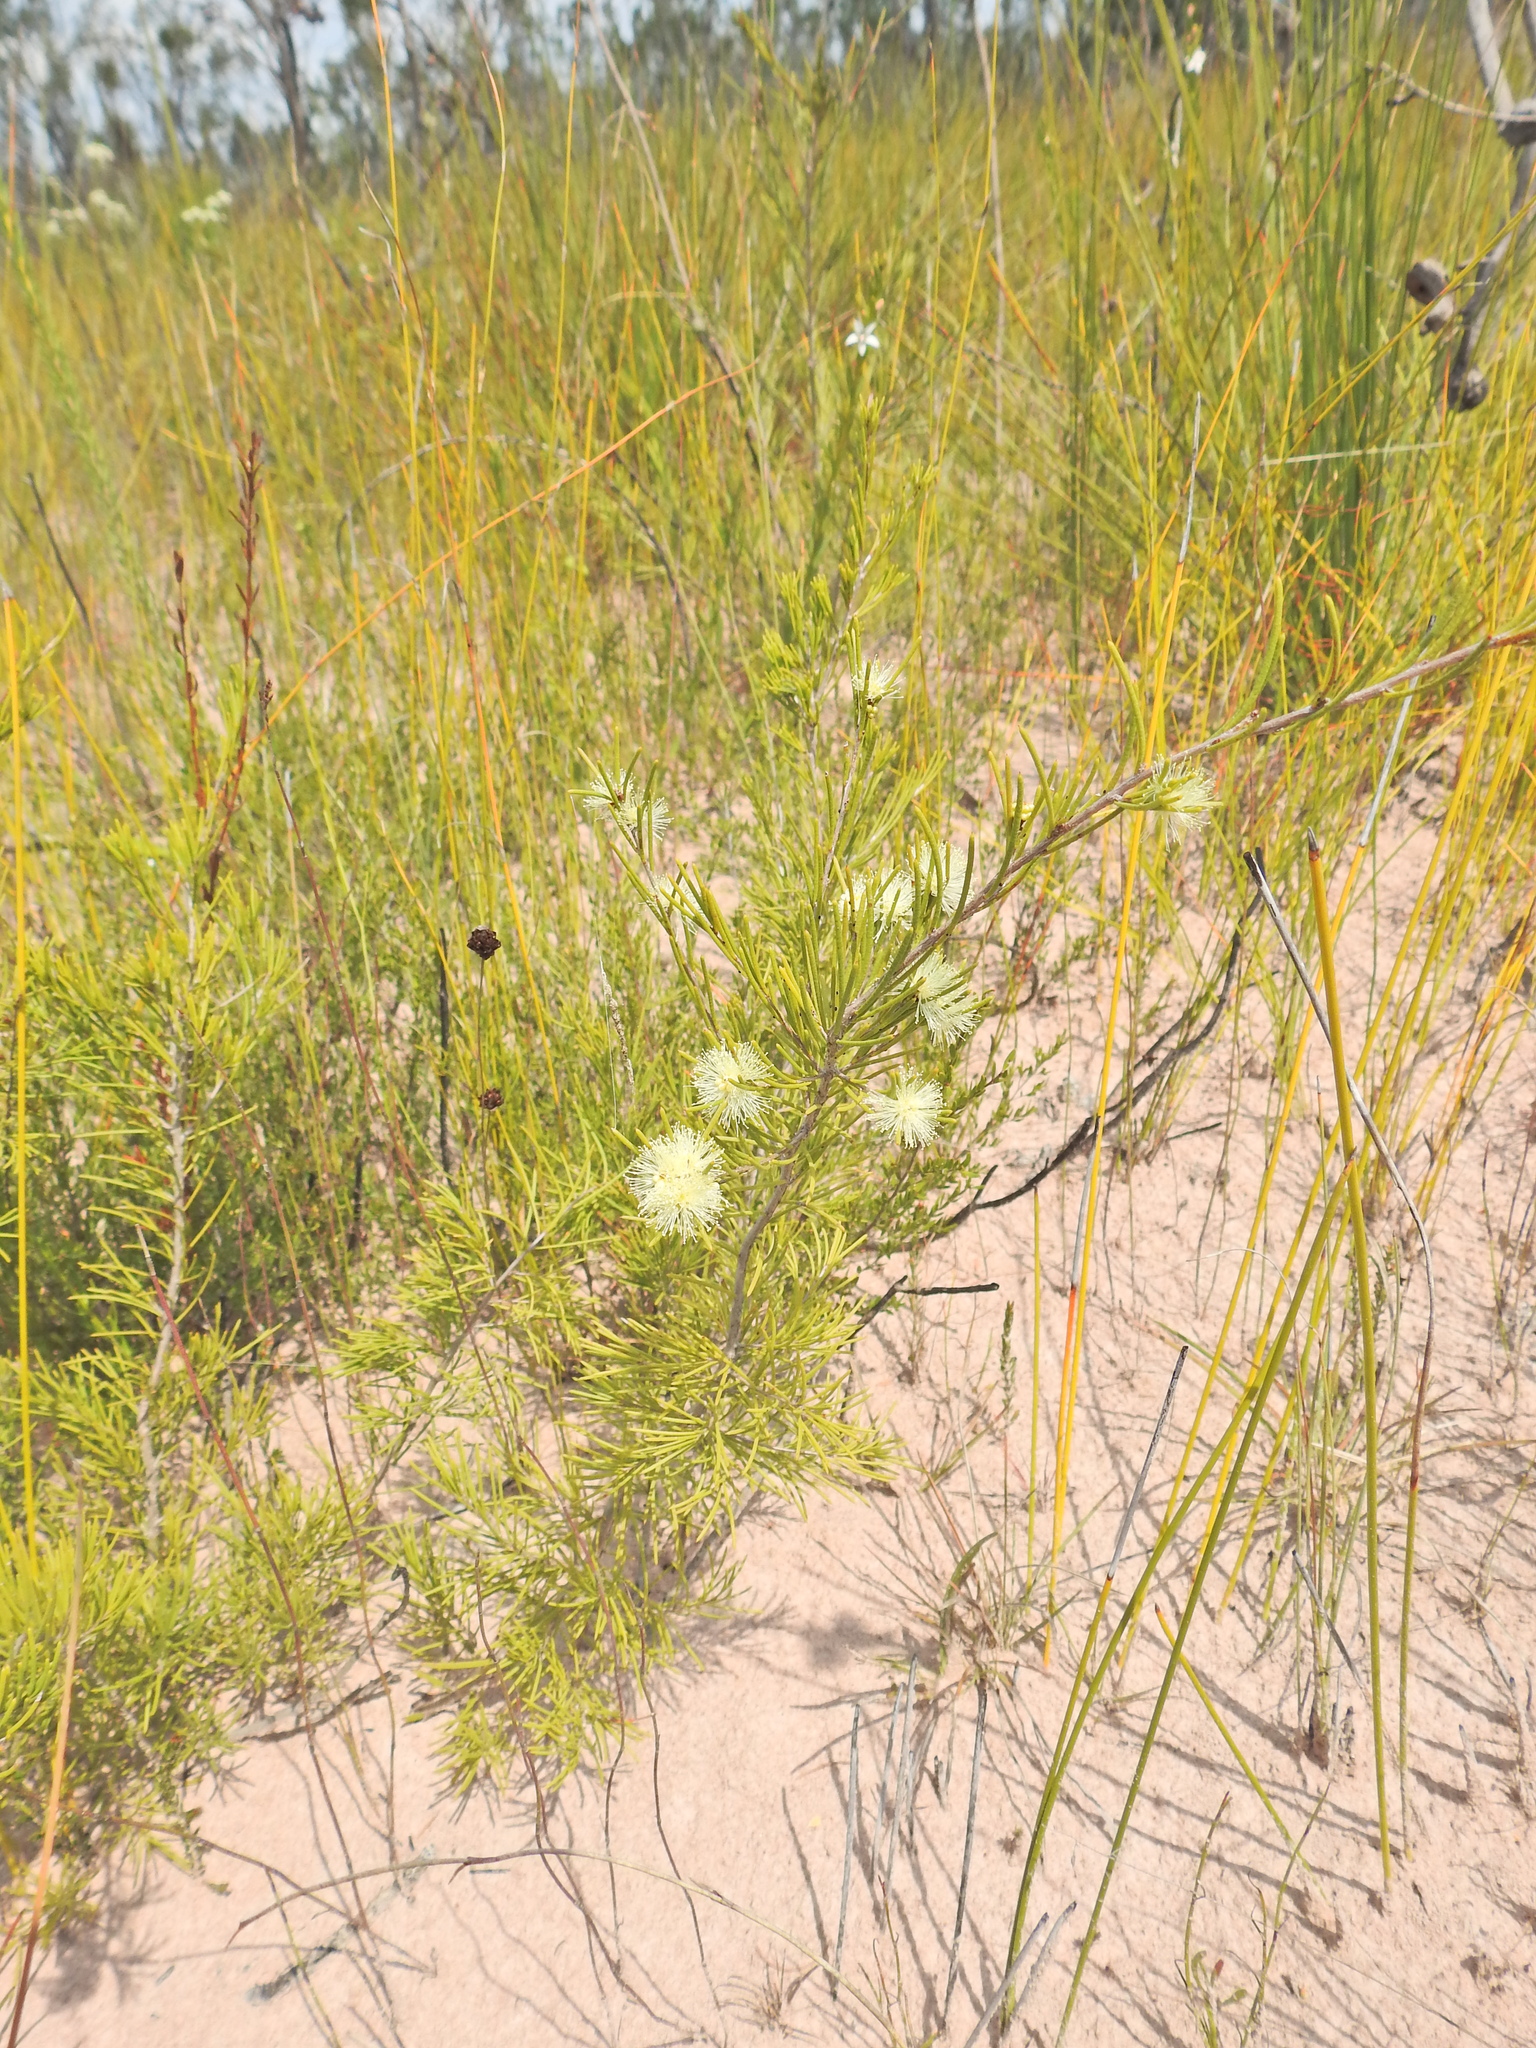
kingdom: Plantae
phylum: Tracheophyta
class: Magnoliopsida
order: Myrtales
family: Myrtaceae
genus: Melaleuca
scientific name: Melaleuca nodosa
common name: Prickly-leaf paperbark
